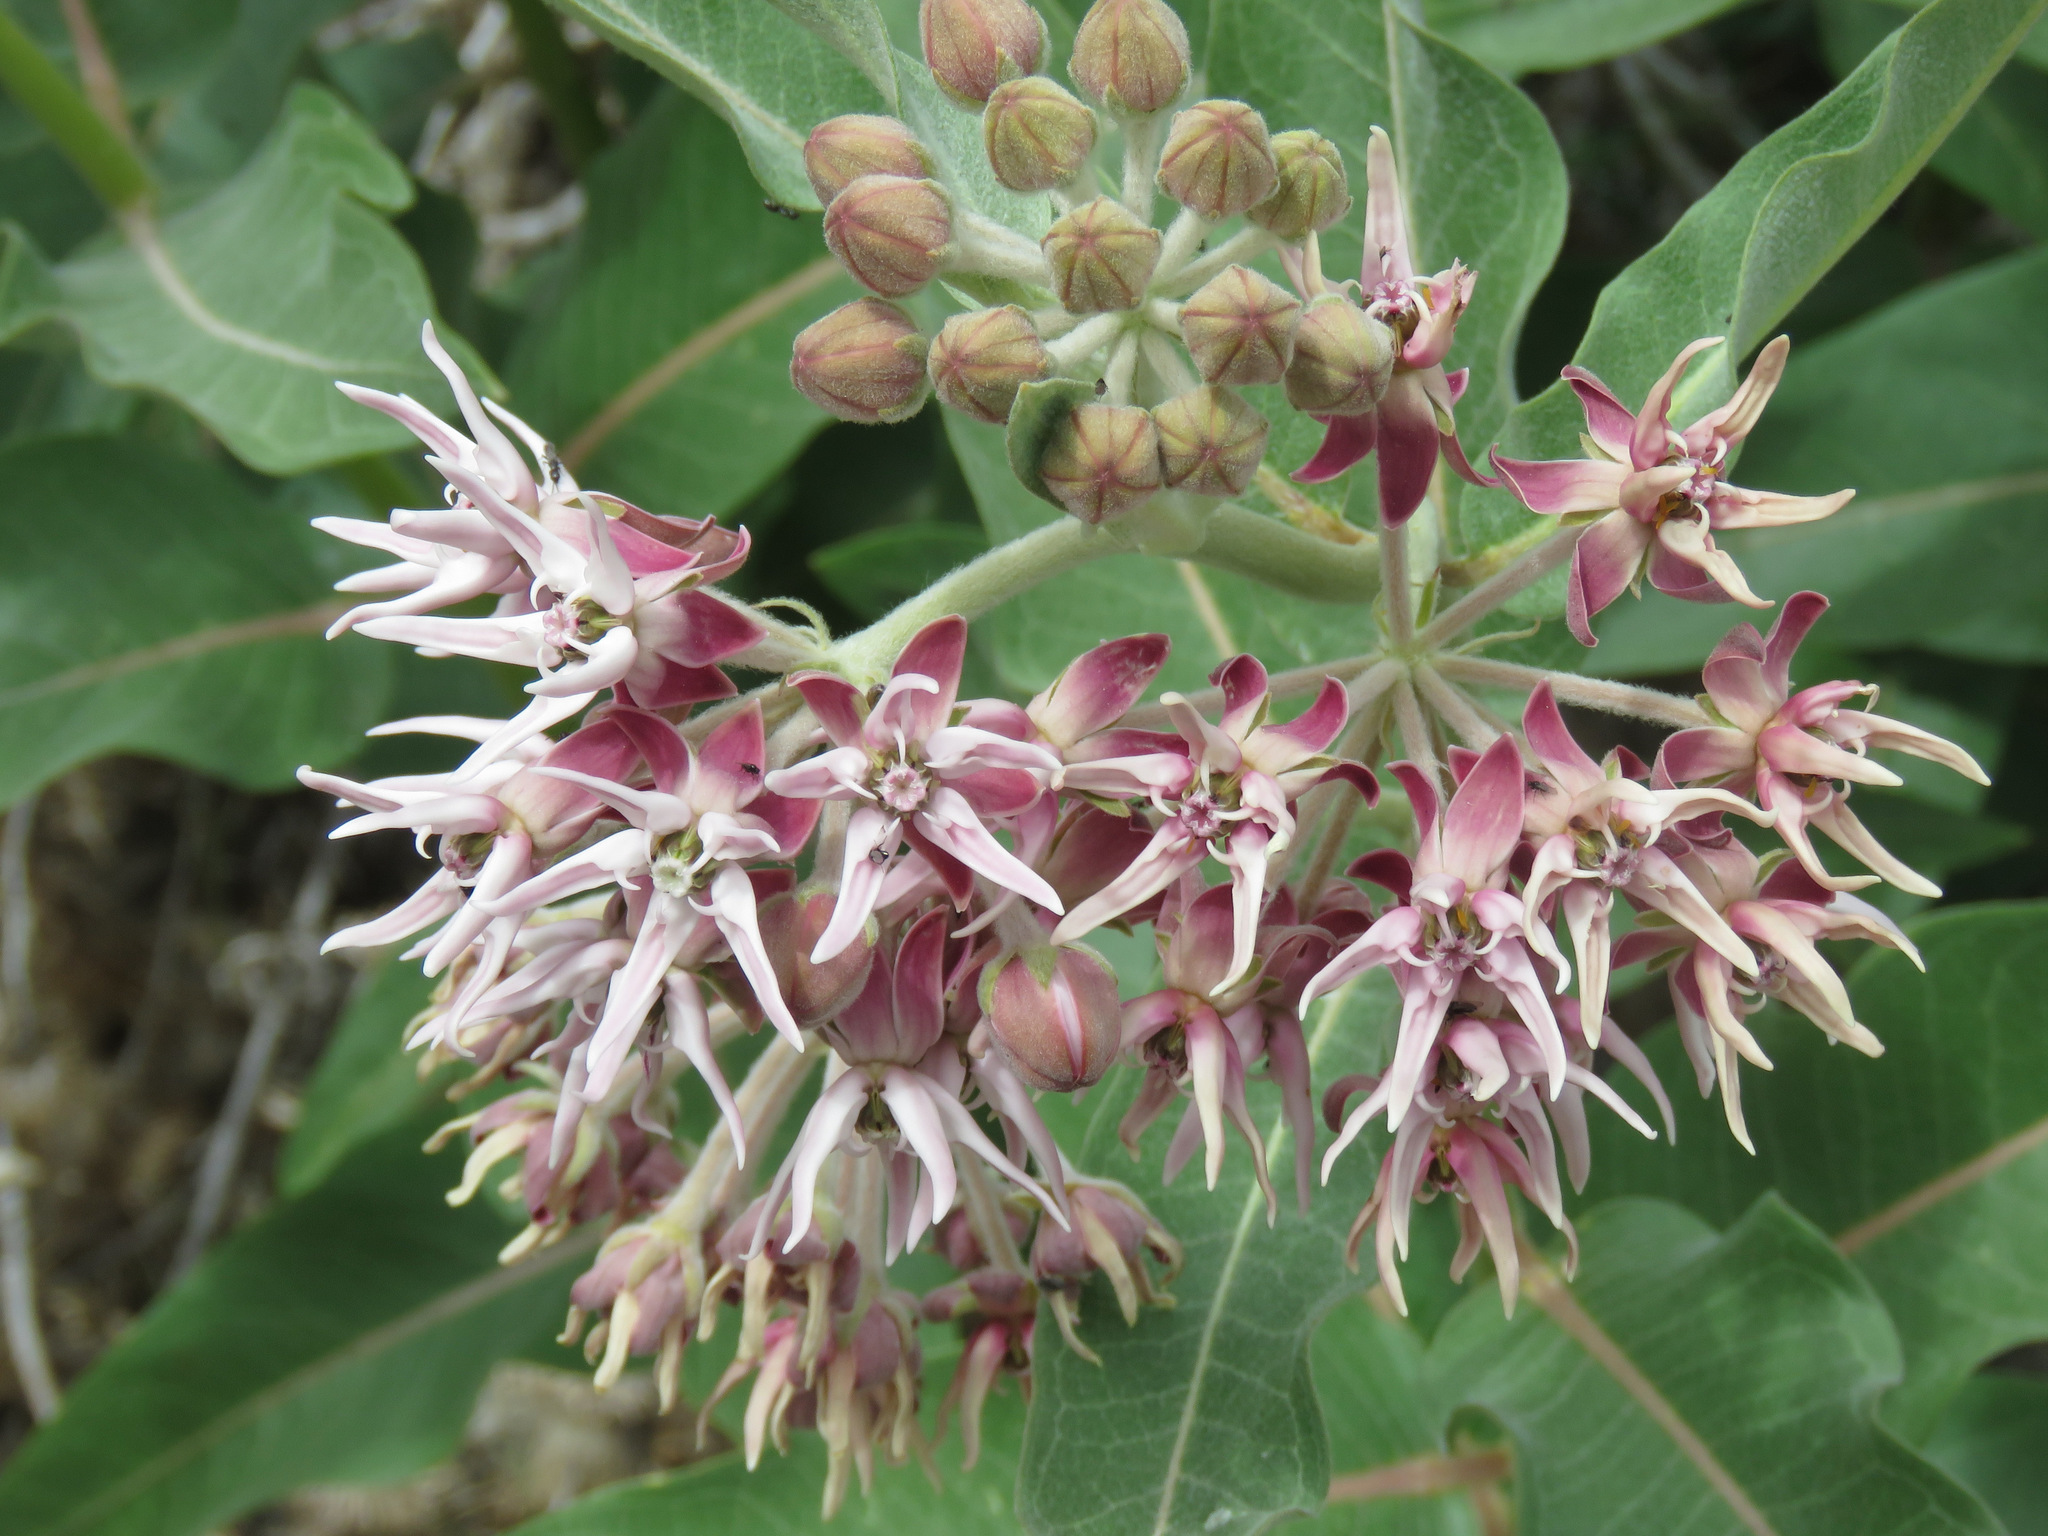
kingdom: Plantae
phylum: Tracheophyta
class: Magnoliopsida
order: Gentianales
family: Apocynaceae
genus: Asclepias
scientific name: Asclepias speciosa
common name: Showy milkweed
